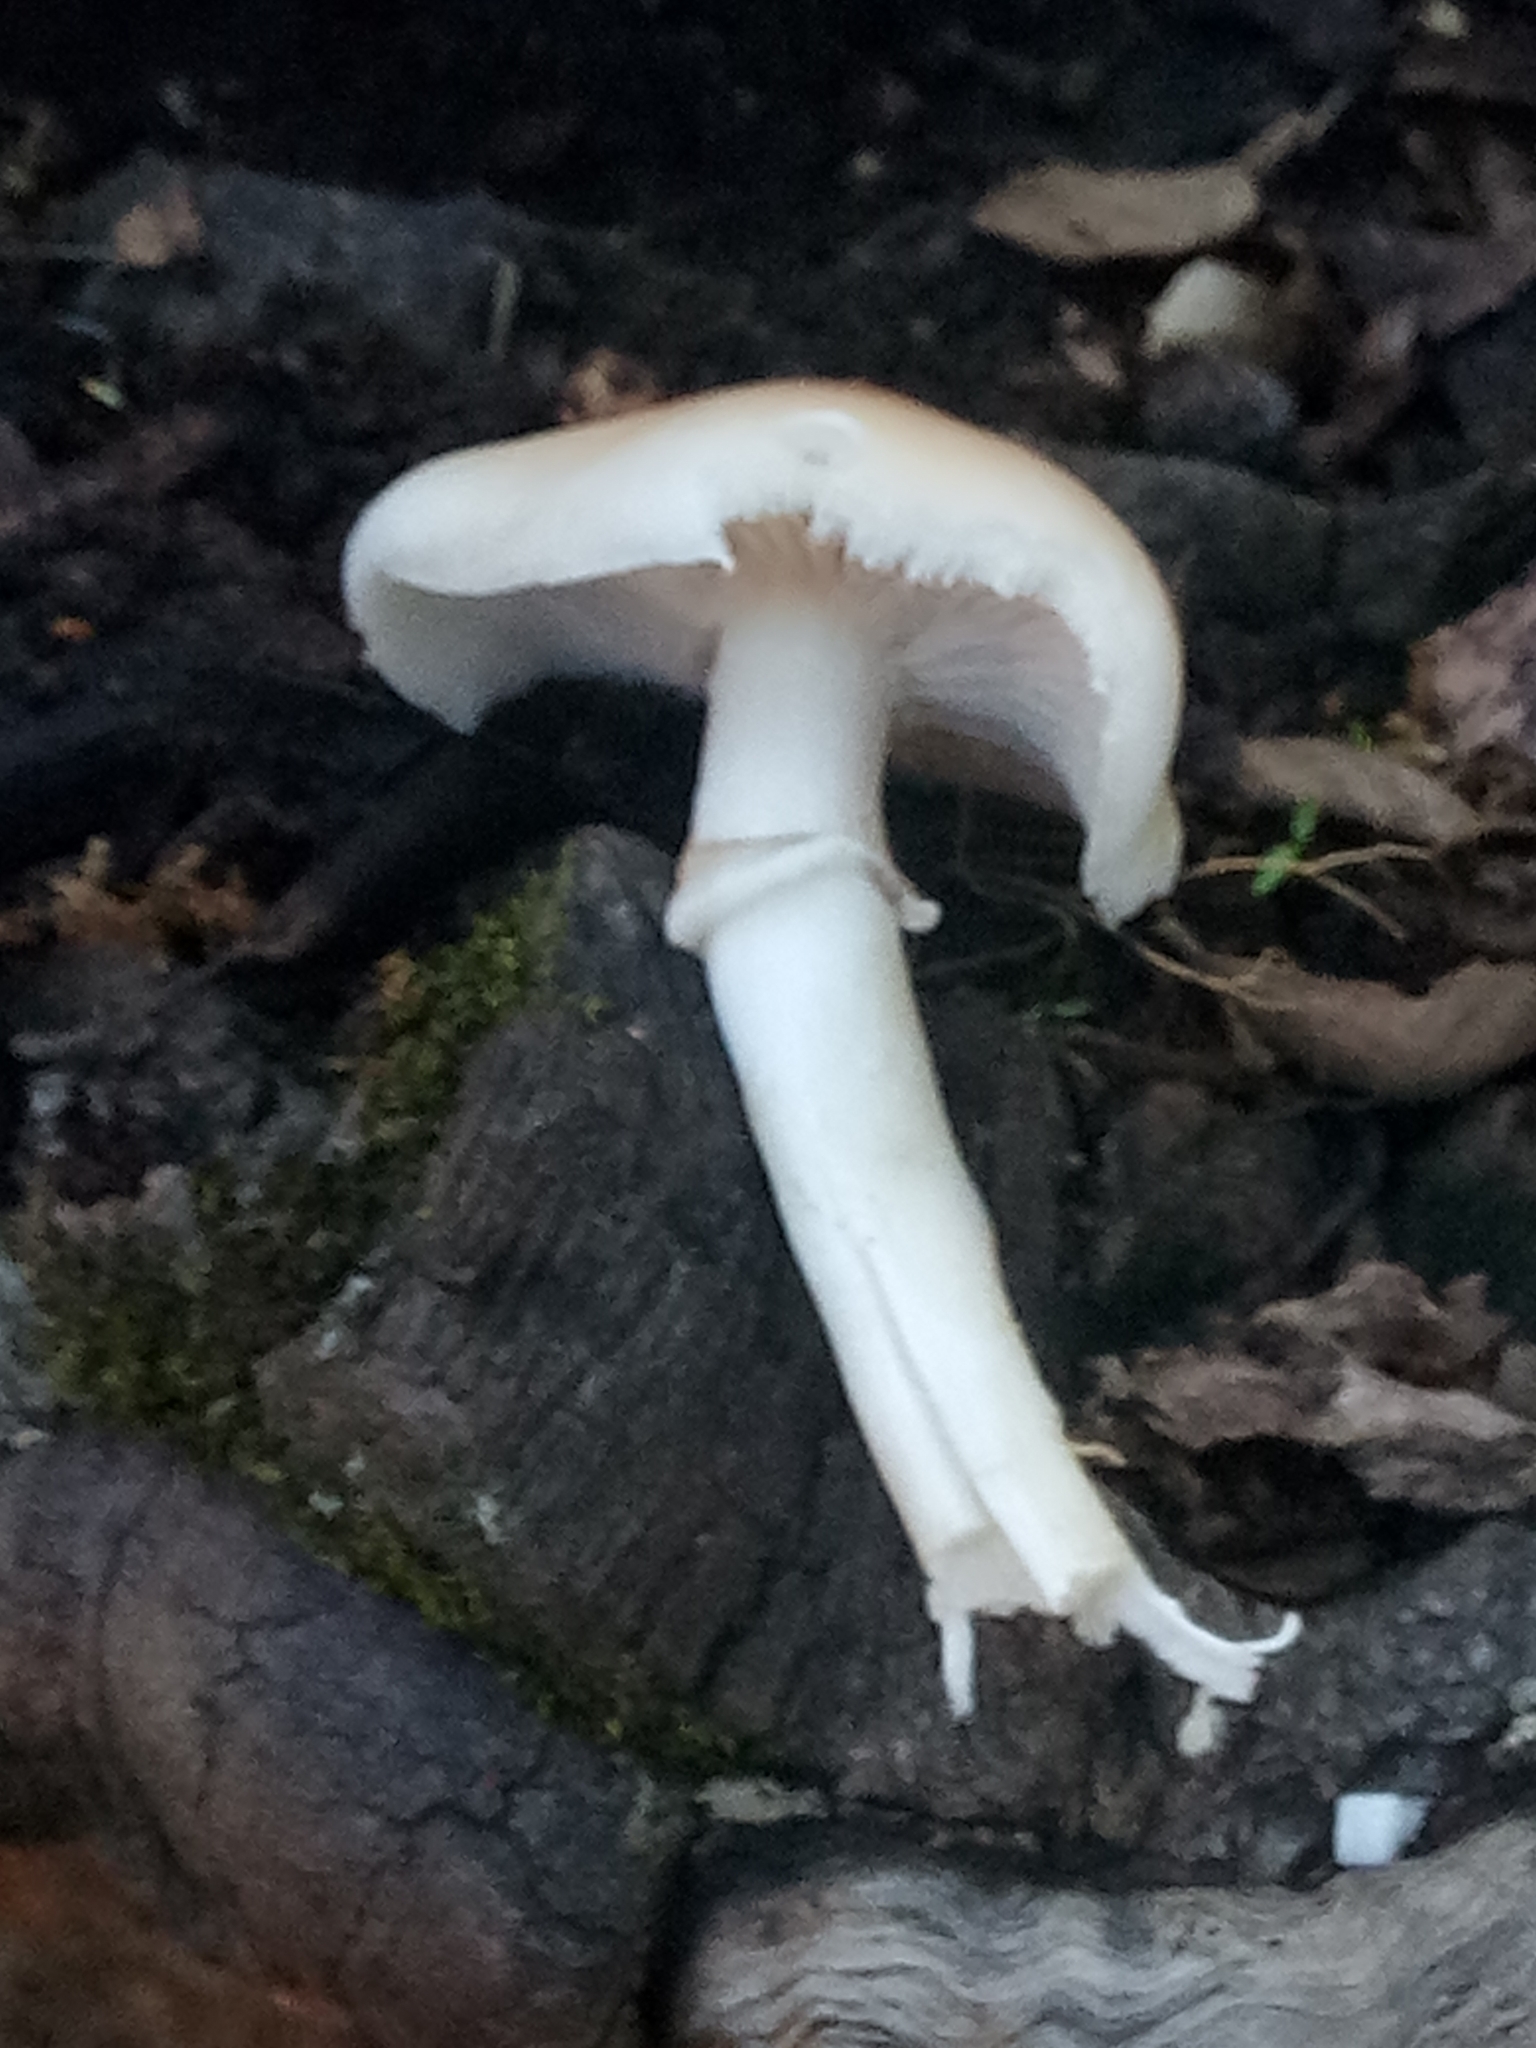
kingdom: Fungi
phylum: Basidiomycota
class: Agaricomycetes
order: Agaricales
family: Tubariaceae
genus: Cyclocybe
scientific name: Cyclocybe cylindracea
